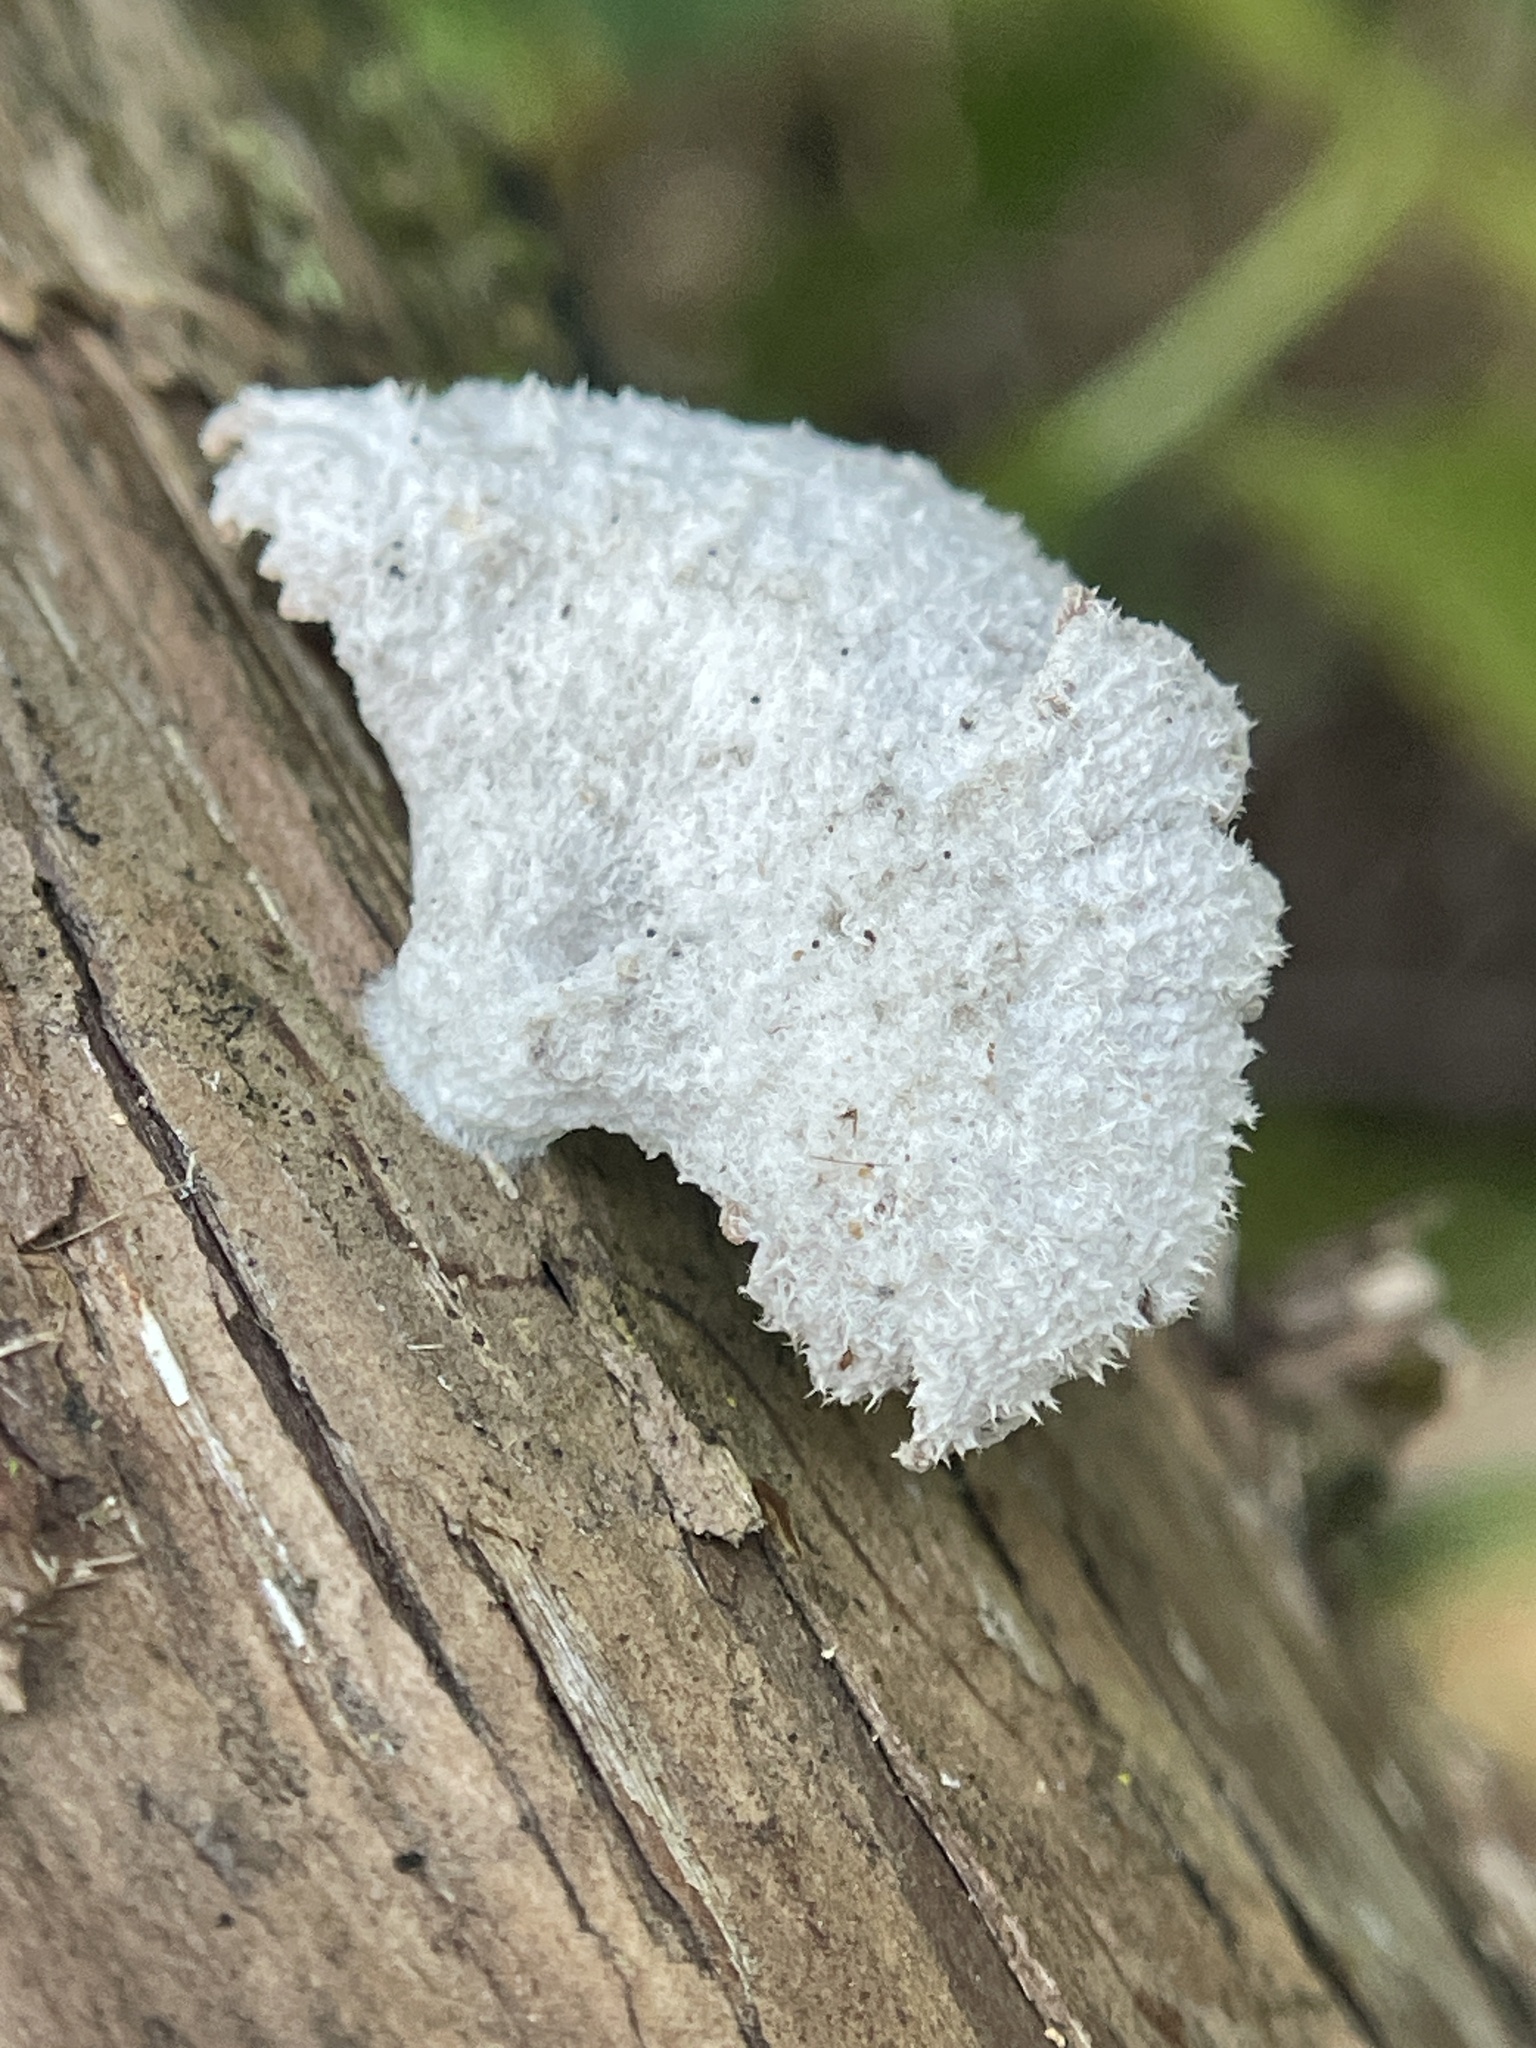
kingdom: Fungi
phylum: Basidiomycota
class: Agaricomycetes
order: Agaricales
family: Schizophyllaceae
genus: Schizophyllum
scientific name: Schizophyllum commune
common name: Common porecrust
